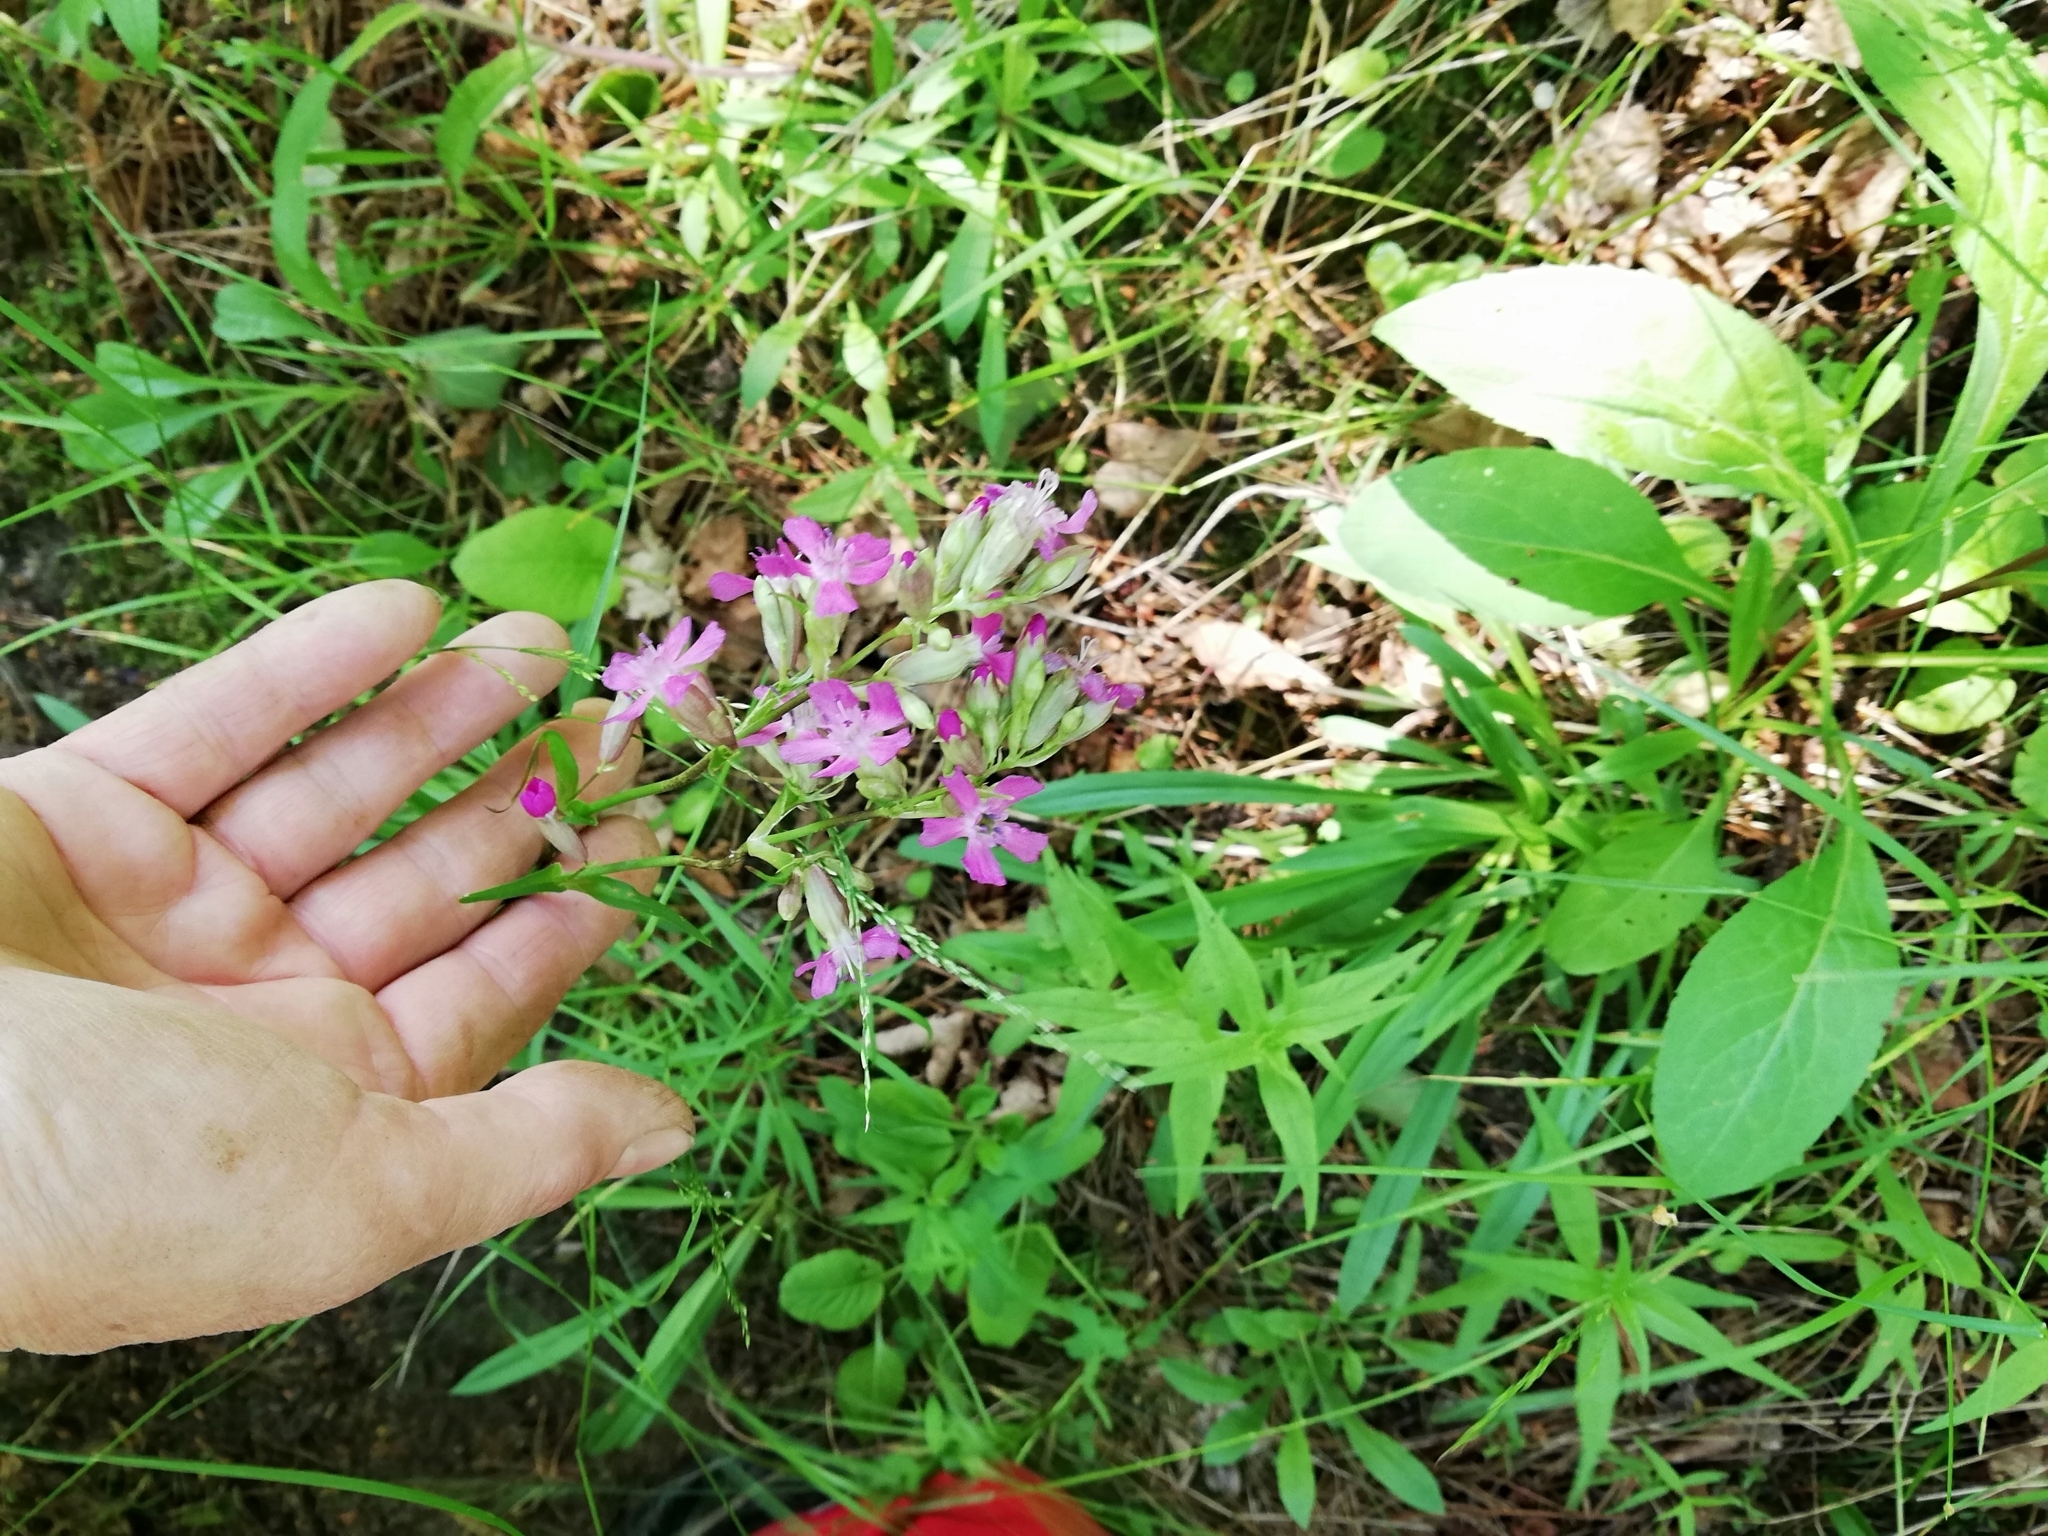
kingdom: Plantae
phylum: Tracheophyta
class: Magnoliopsida
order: Caryophyllales
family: Caryophyllaceae
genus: Viscaria
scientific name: Viscaria vulgaris
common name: Clammy campion
